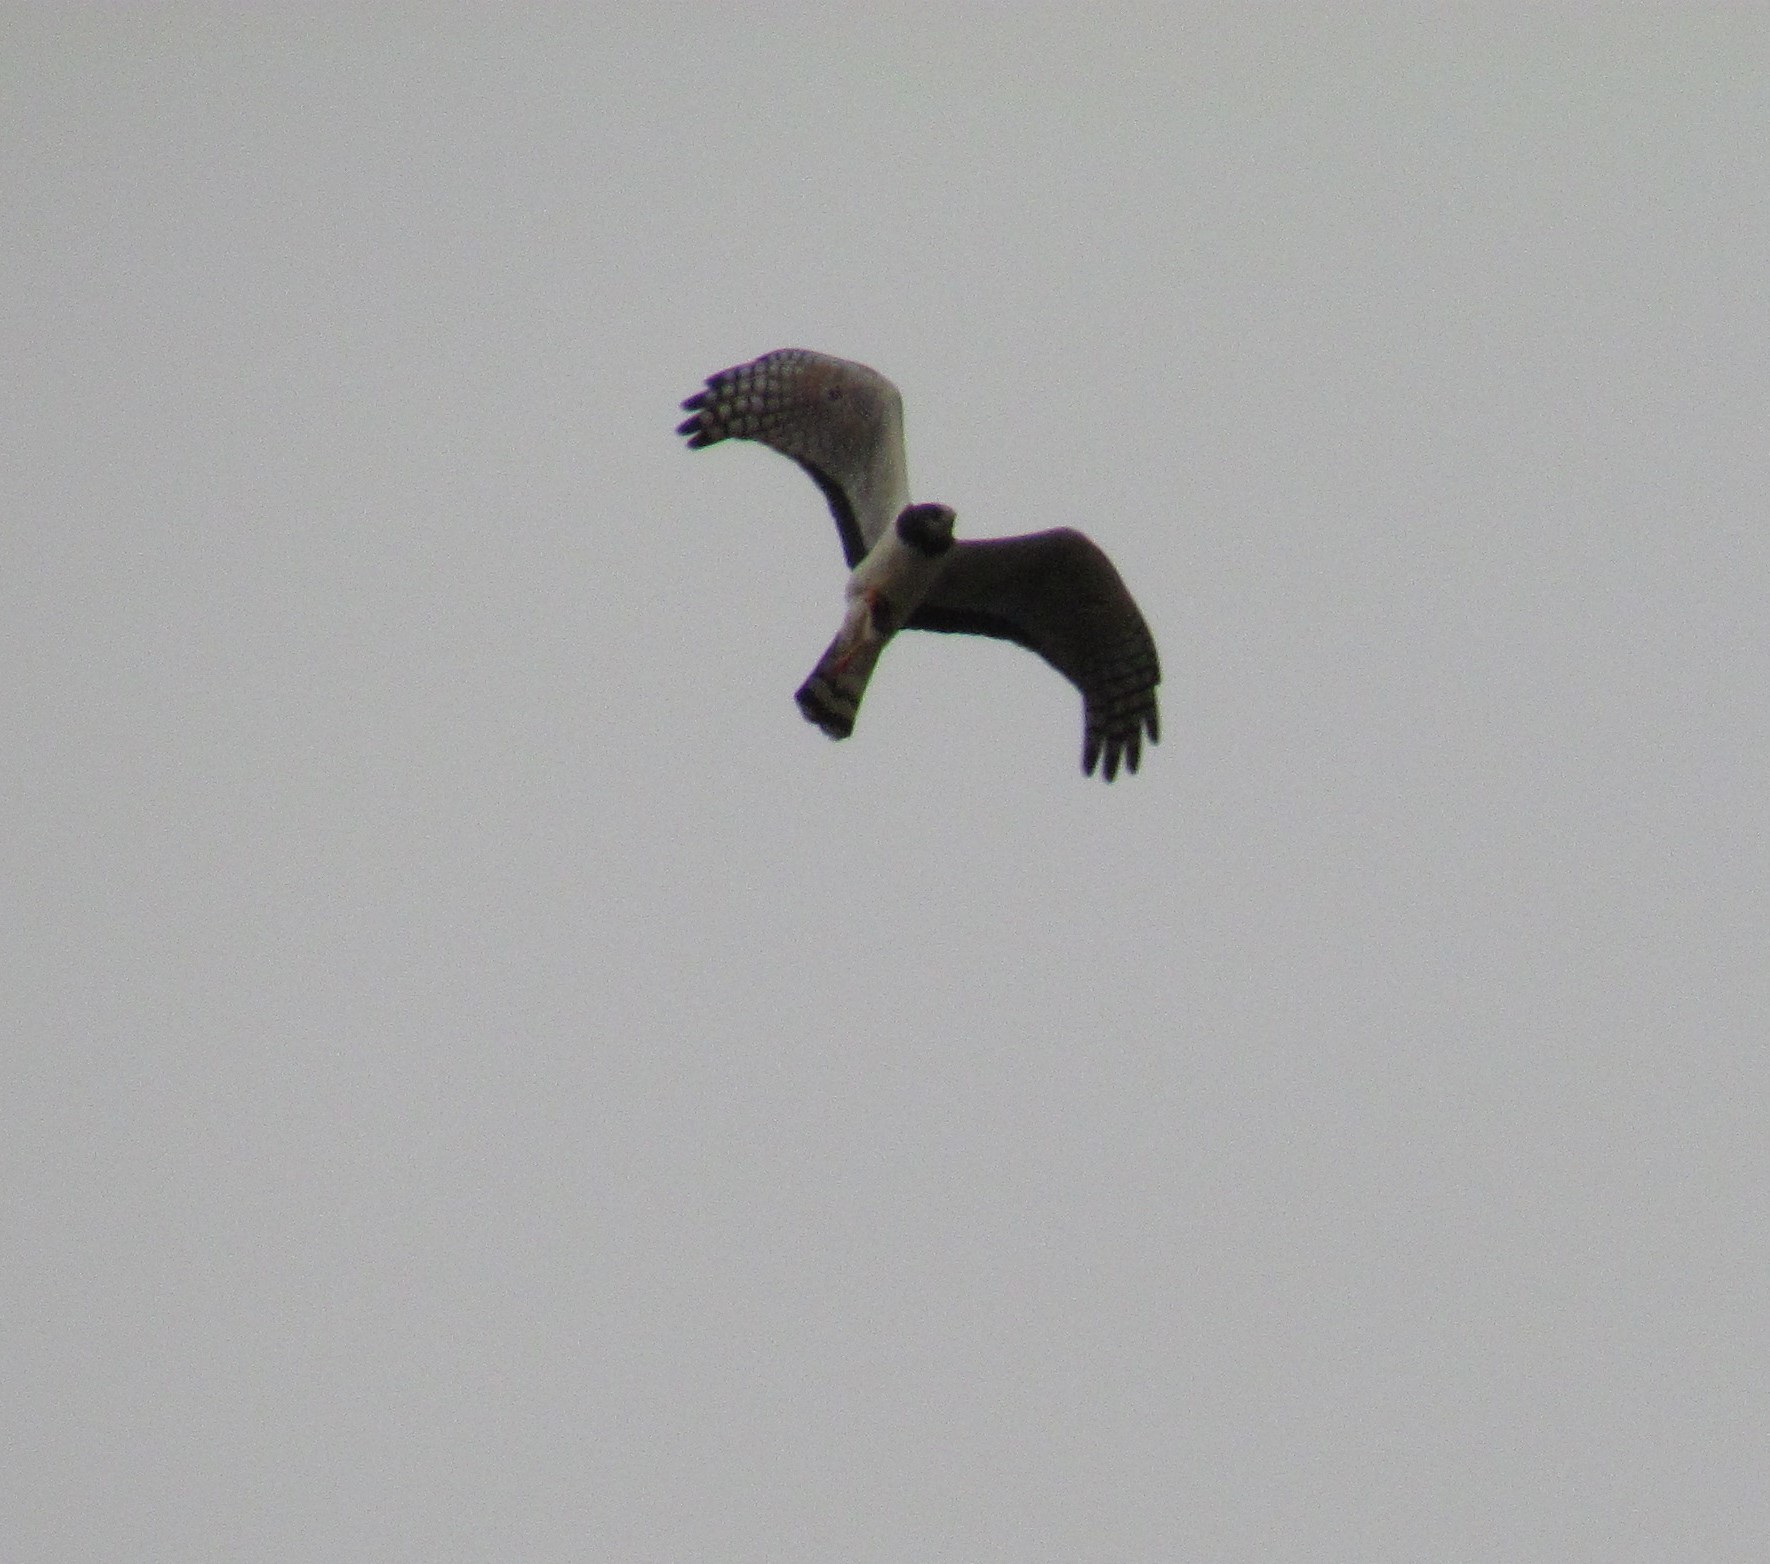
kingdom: Animalia
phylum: Chordata
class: Aves
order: Accipitriformes
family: Accipitridae
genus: Circus
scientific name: Circus buffoni
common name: Long-winged harrier
